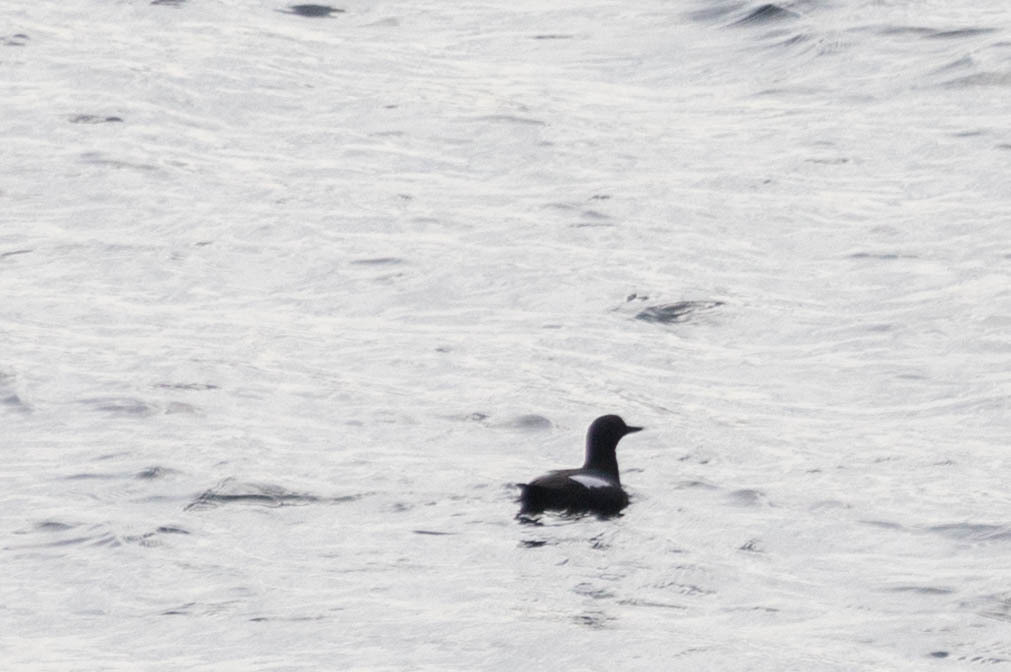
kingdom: Animalia
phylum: Chordata
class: Aves
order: Charadriiformes
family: Alcidae
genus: Cepphus
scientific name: Cepphus columba
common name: Pigeon guillemot
